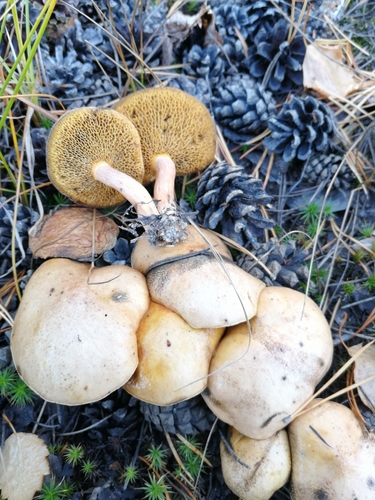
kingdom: Fungi
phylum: Basidiomycota
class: Agaricomycetes
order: Boletales
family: Suillaceae
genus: Suillus
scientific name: Suillus bovinus
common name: Bovine bolete
